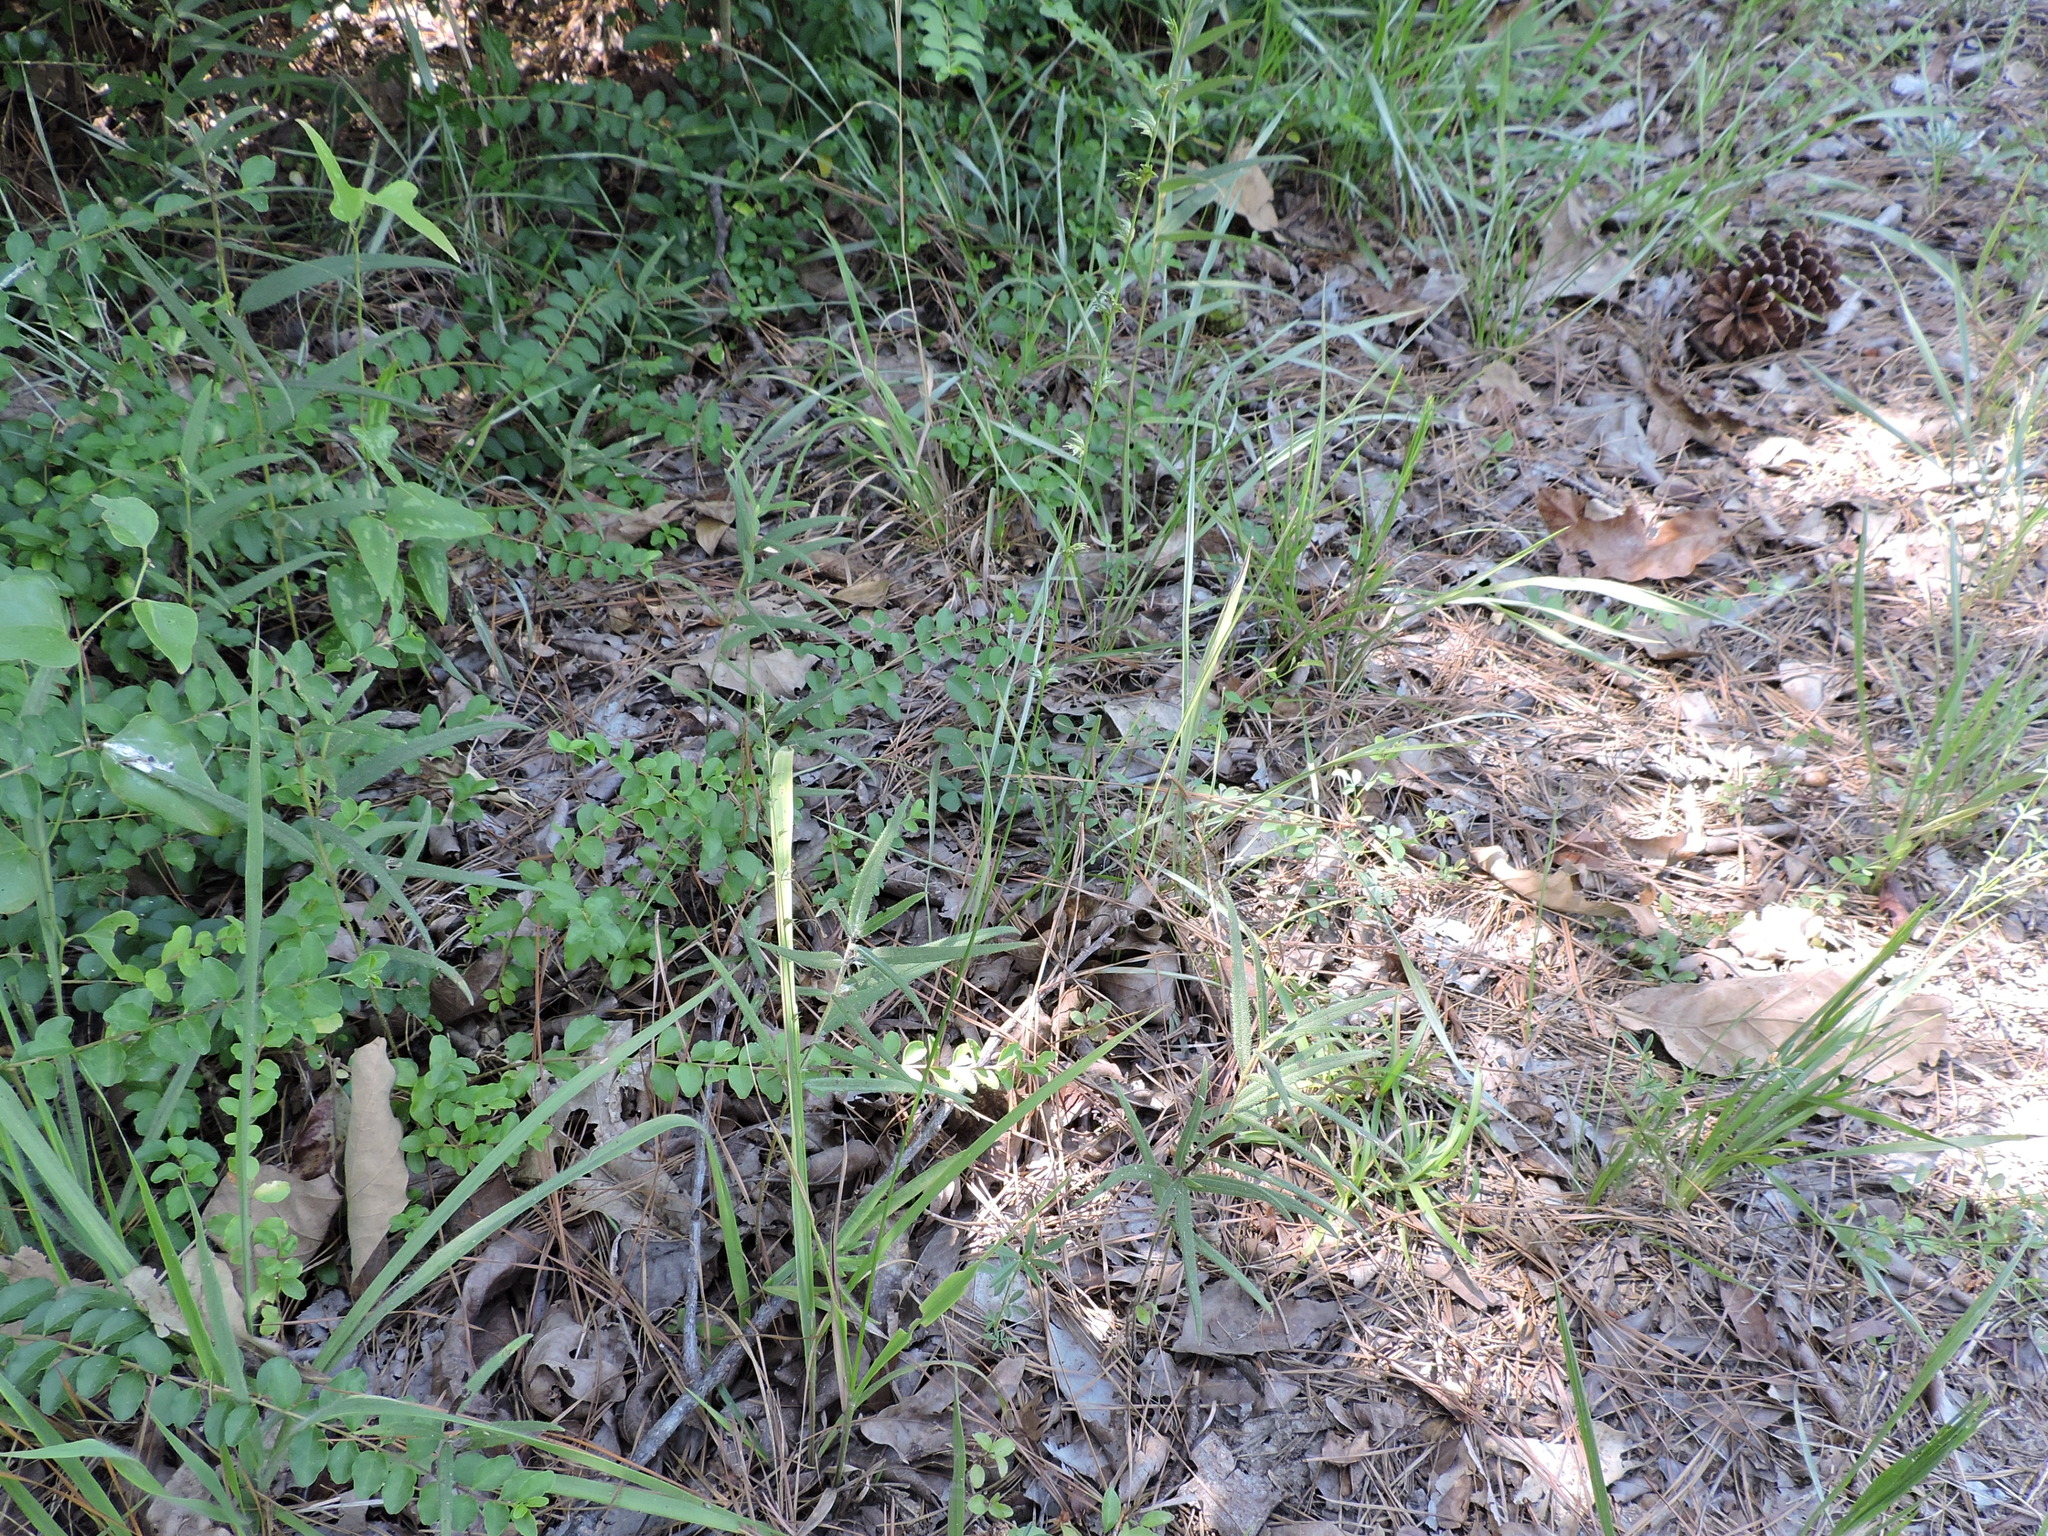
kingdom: Plantae
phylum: Tracheophyta
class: Liliopsida
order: Poales
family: Poaceae
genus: Chasmanthium
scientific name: Chasmanthium laxum
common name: Slender chasmanthium
